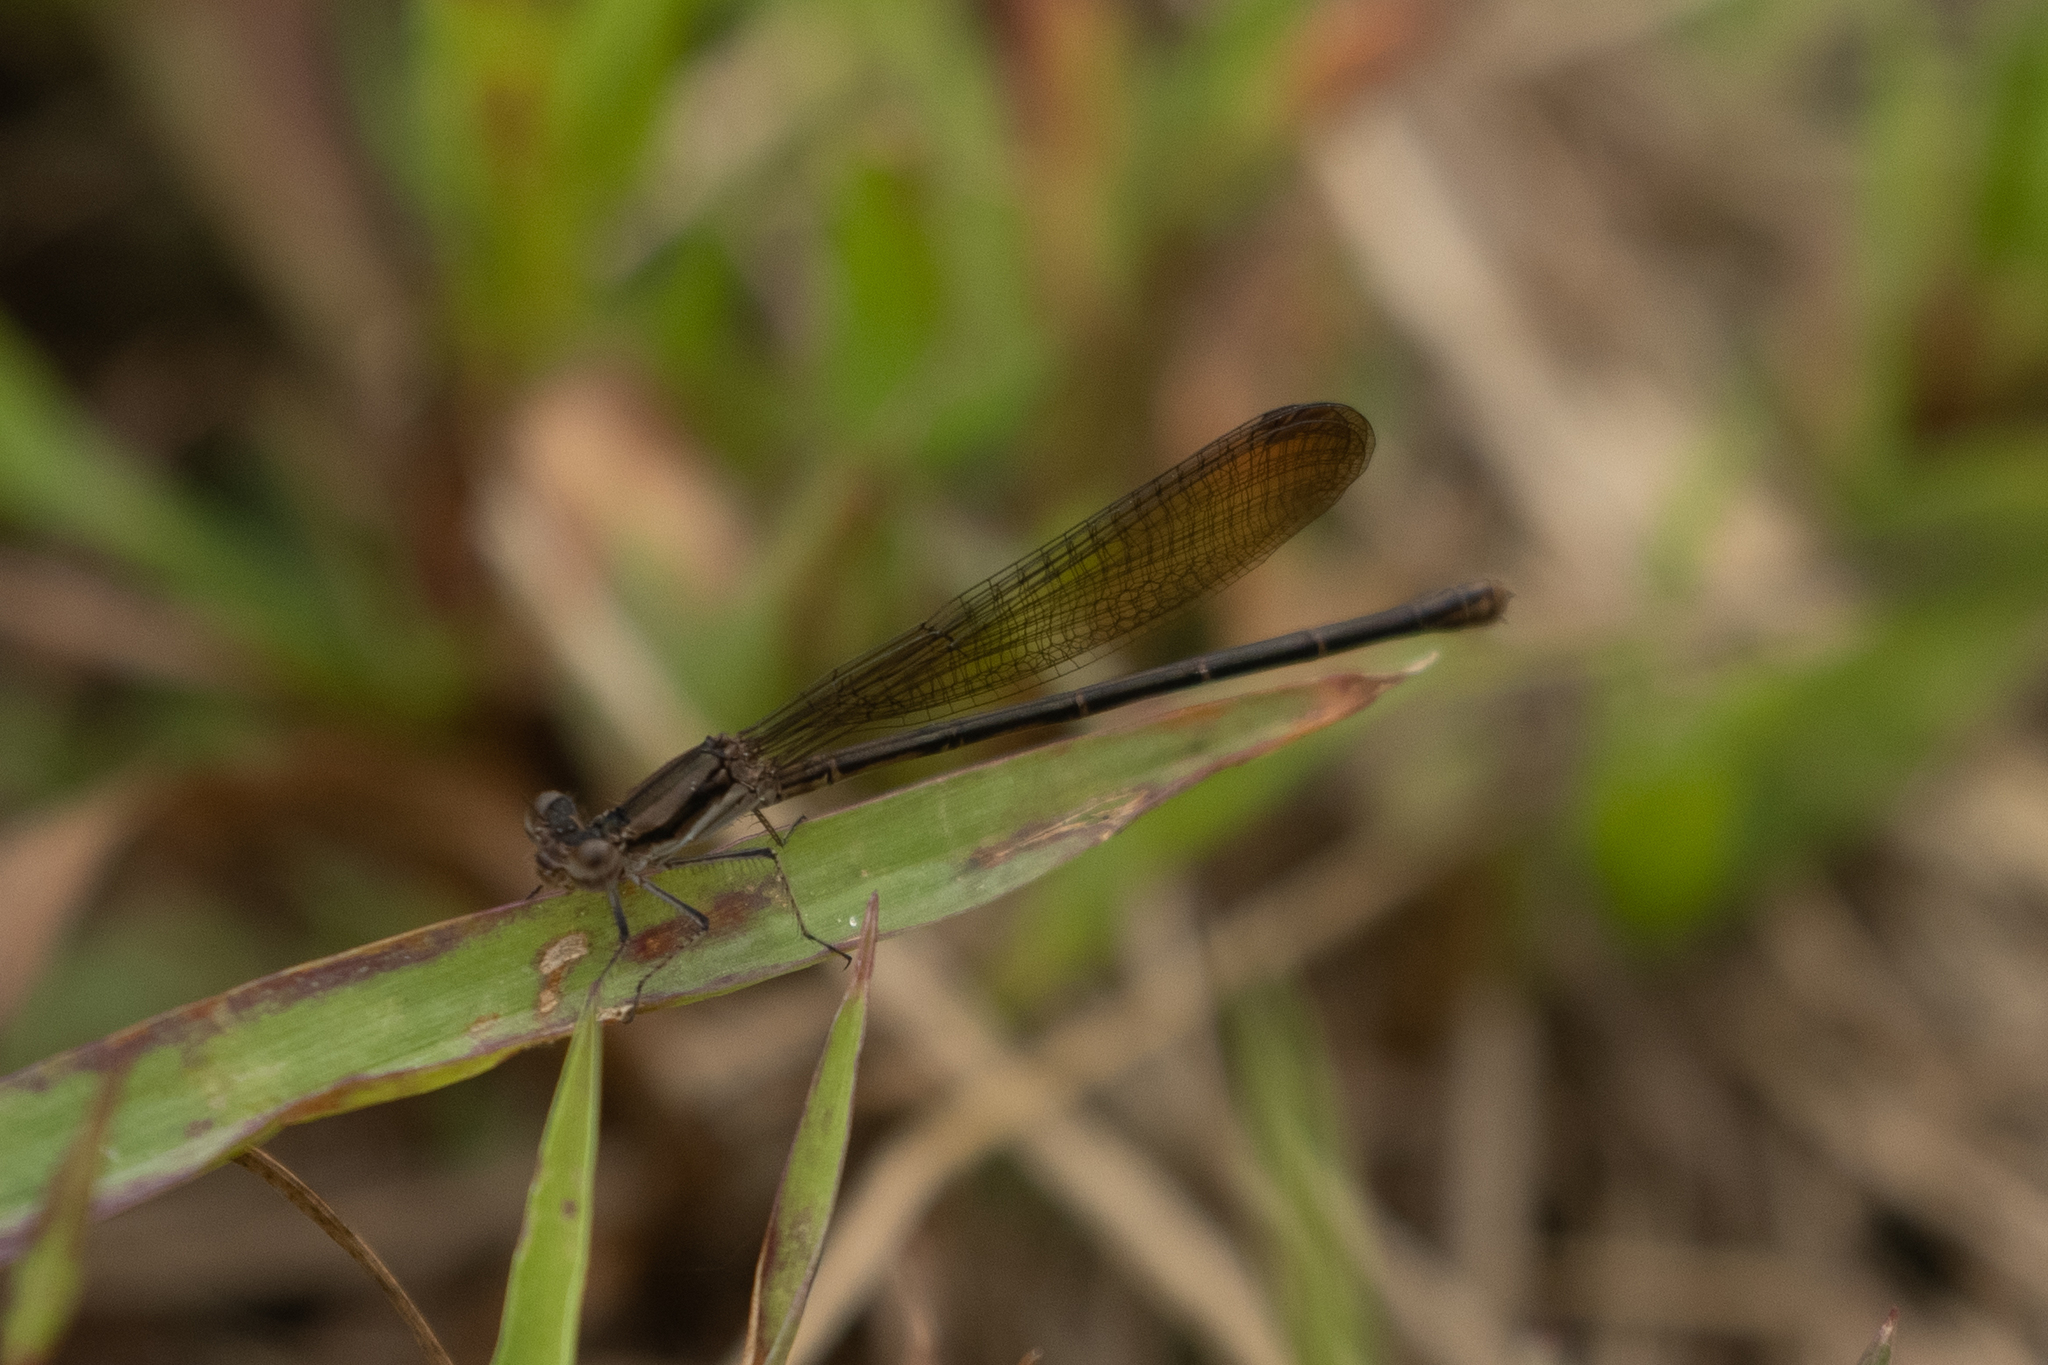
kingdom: Animalia
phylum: Arthropoda
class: Insecta
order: Odonata
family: Coenagrionidae
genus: Argia
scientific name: Argia fumipennis
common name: Variable dancer
